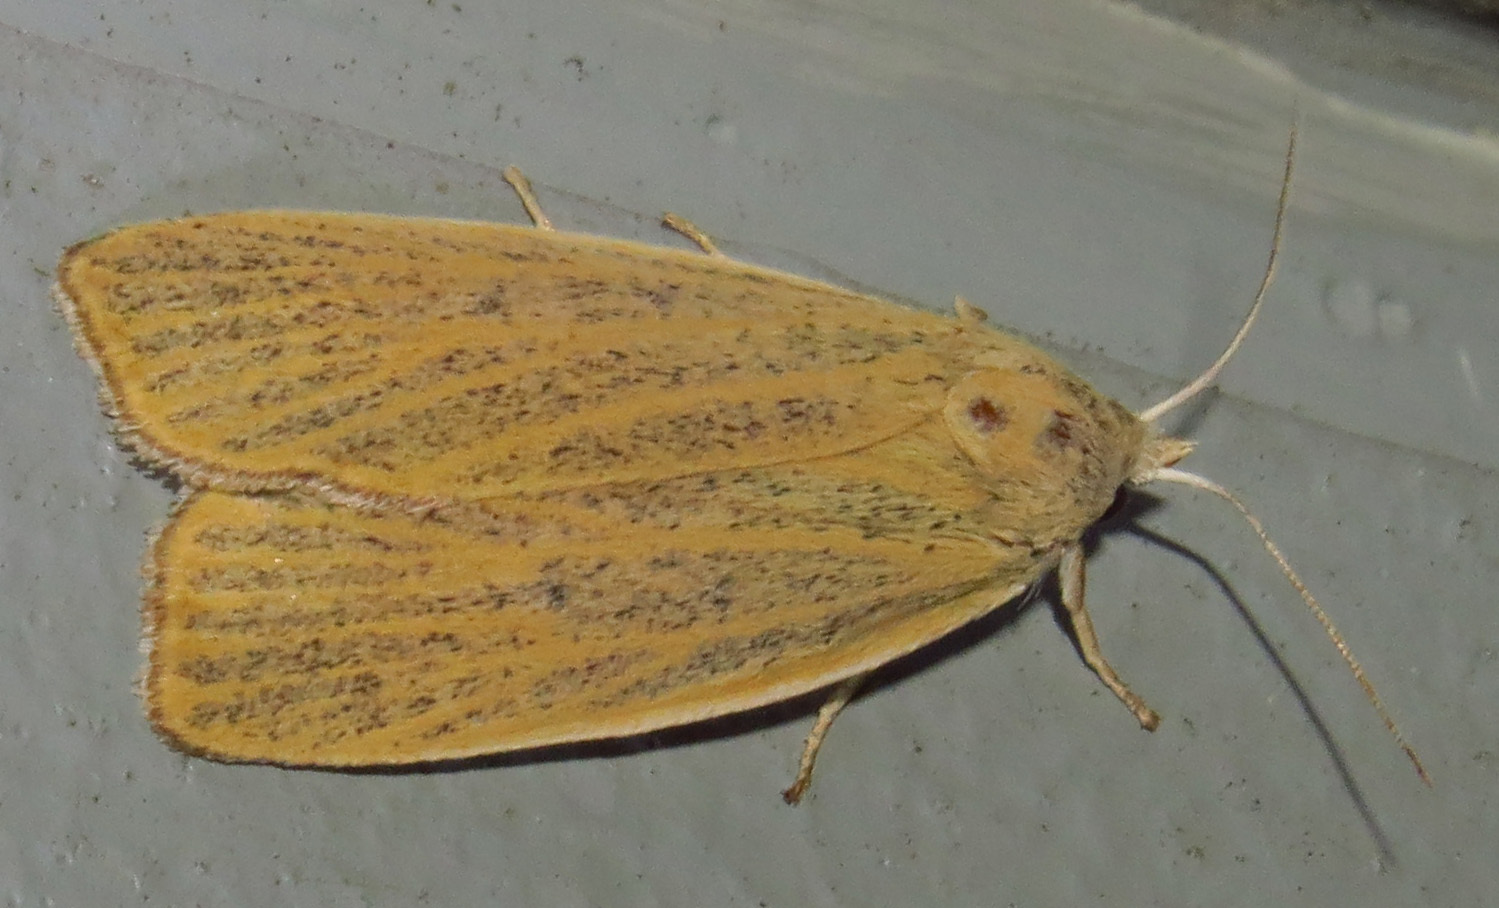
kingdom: Animalia
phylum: Arthropoda
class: Insecta
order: Lepidoptera
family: Erebidae
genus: Palpidia
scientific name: Palpidia pallidior
